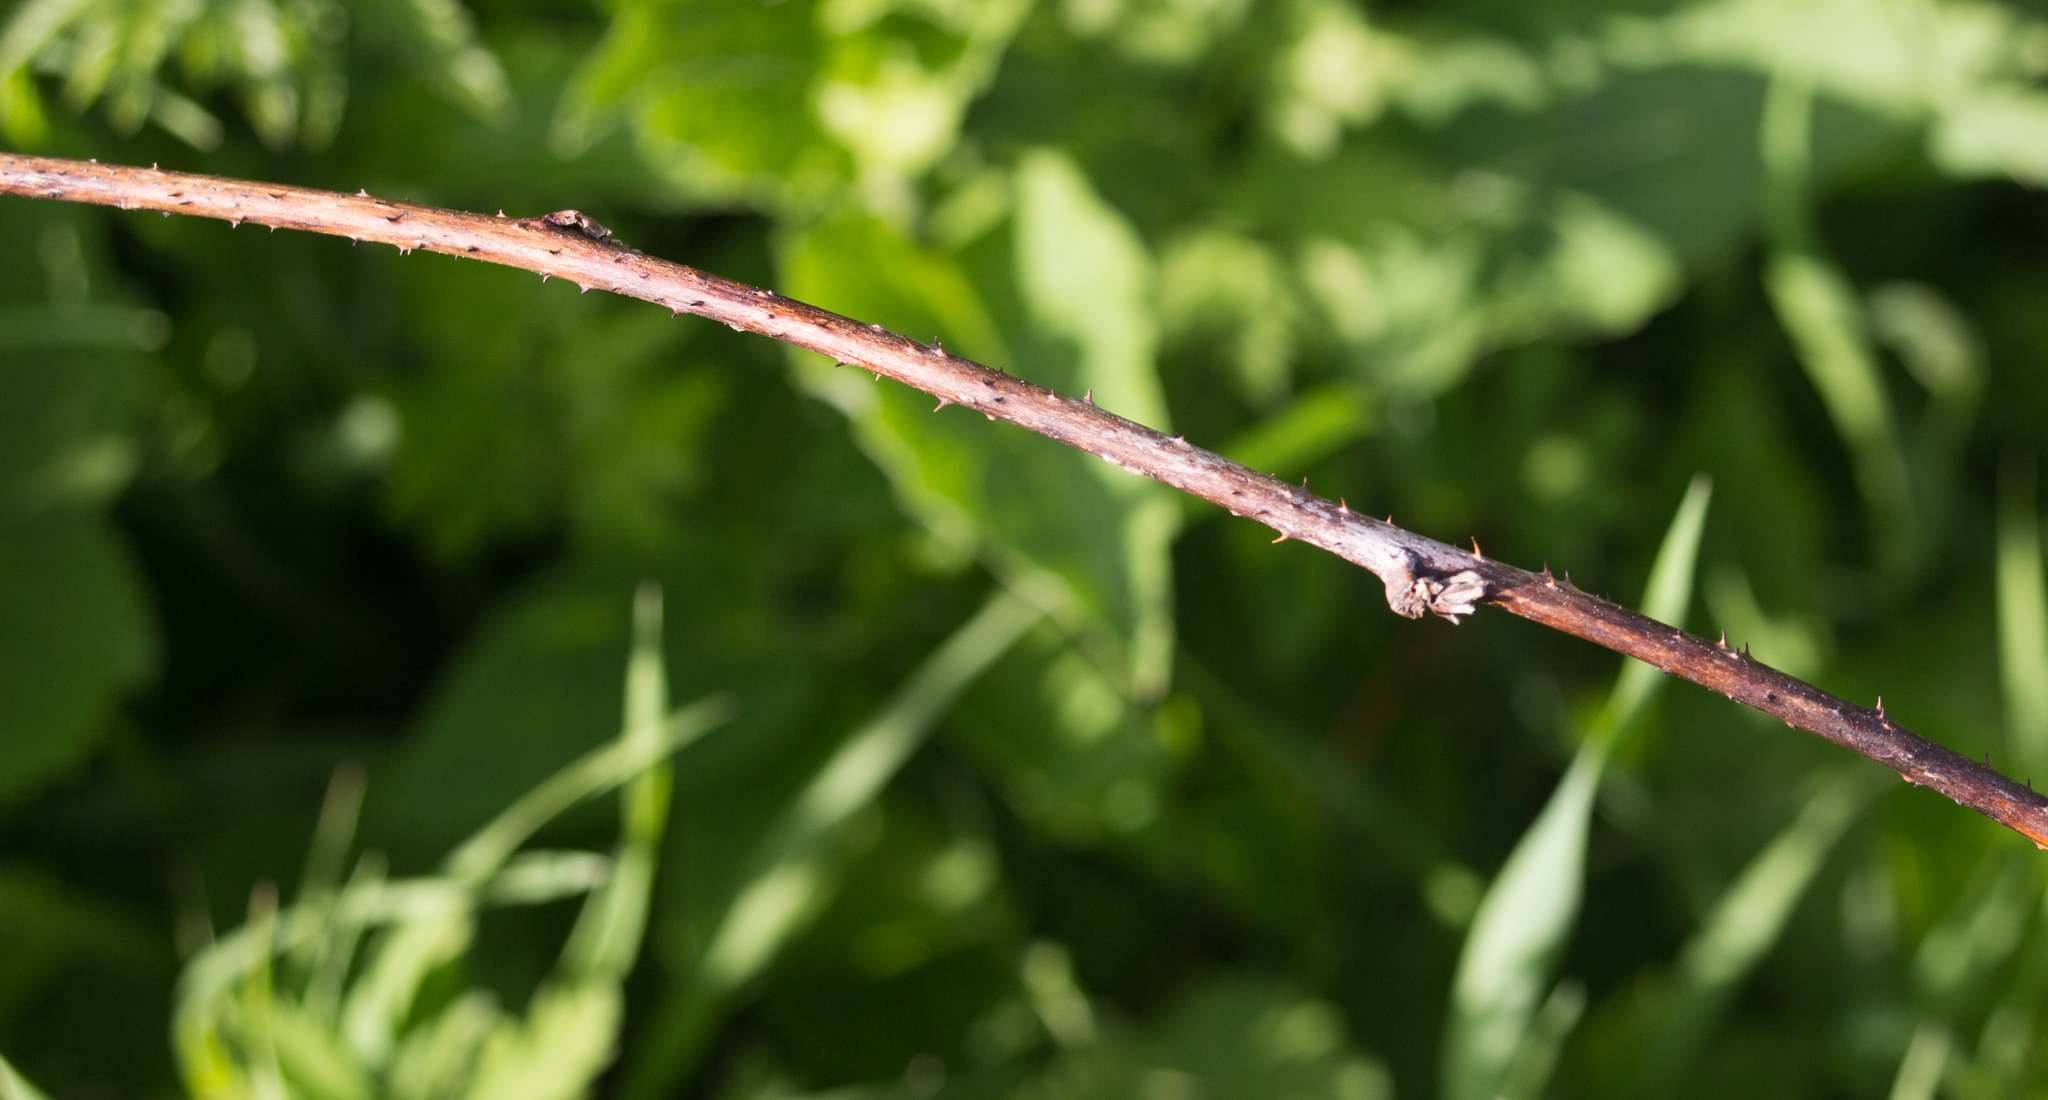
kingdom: Plantae
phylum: Tracheophyta
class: Magnoliopsida
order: Rosales
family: Rosaceae
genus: Rubus
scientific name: Rubus caesius
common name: Dewberry
